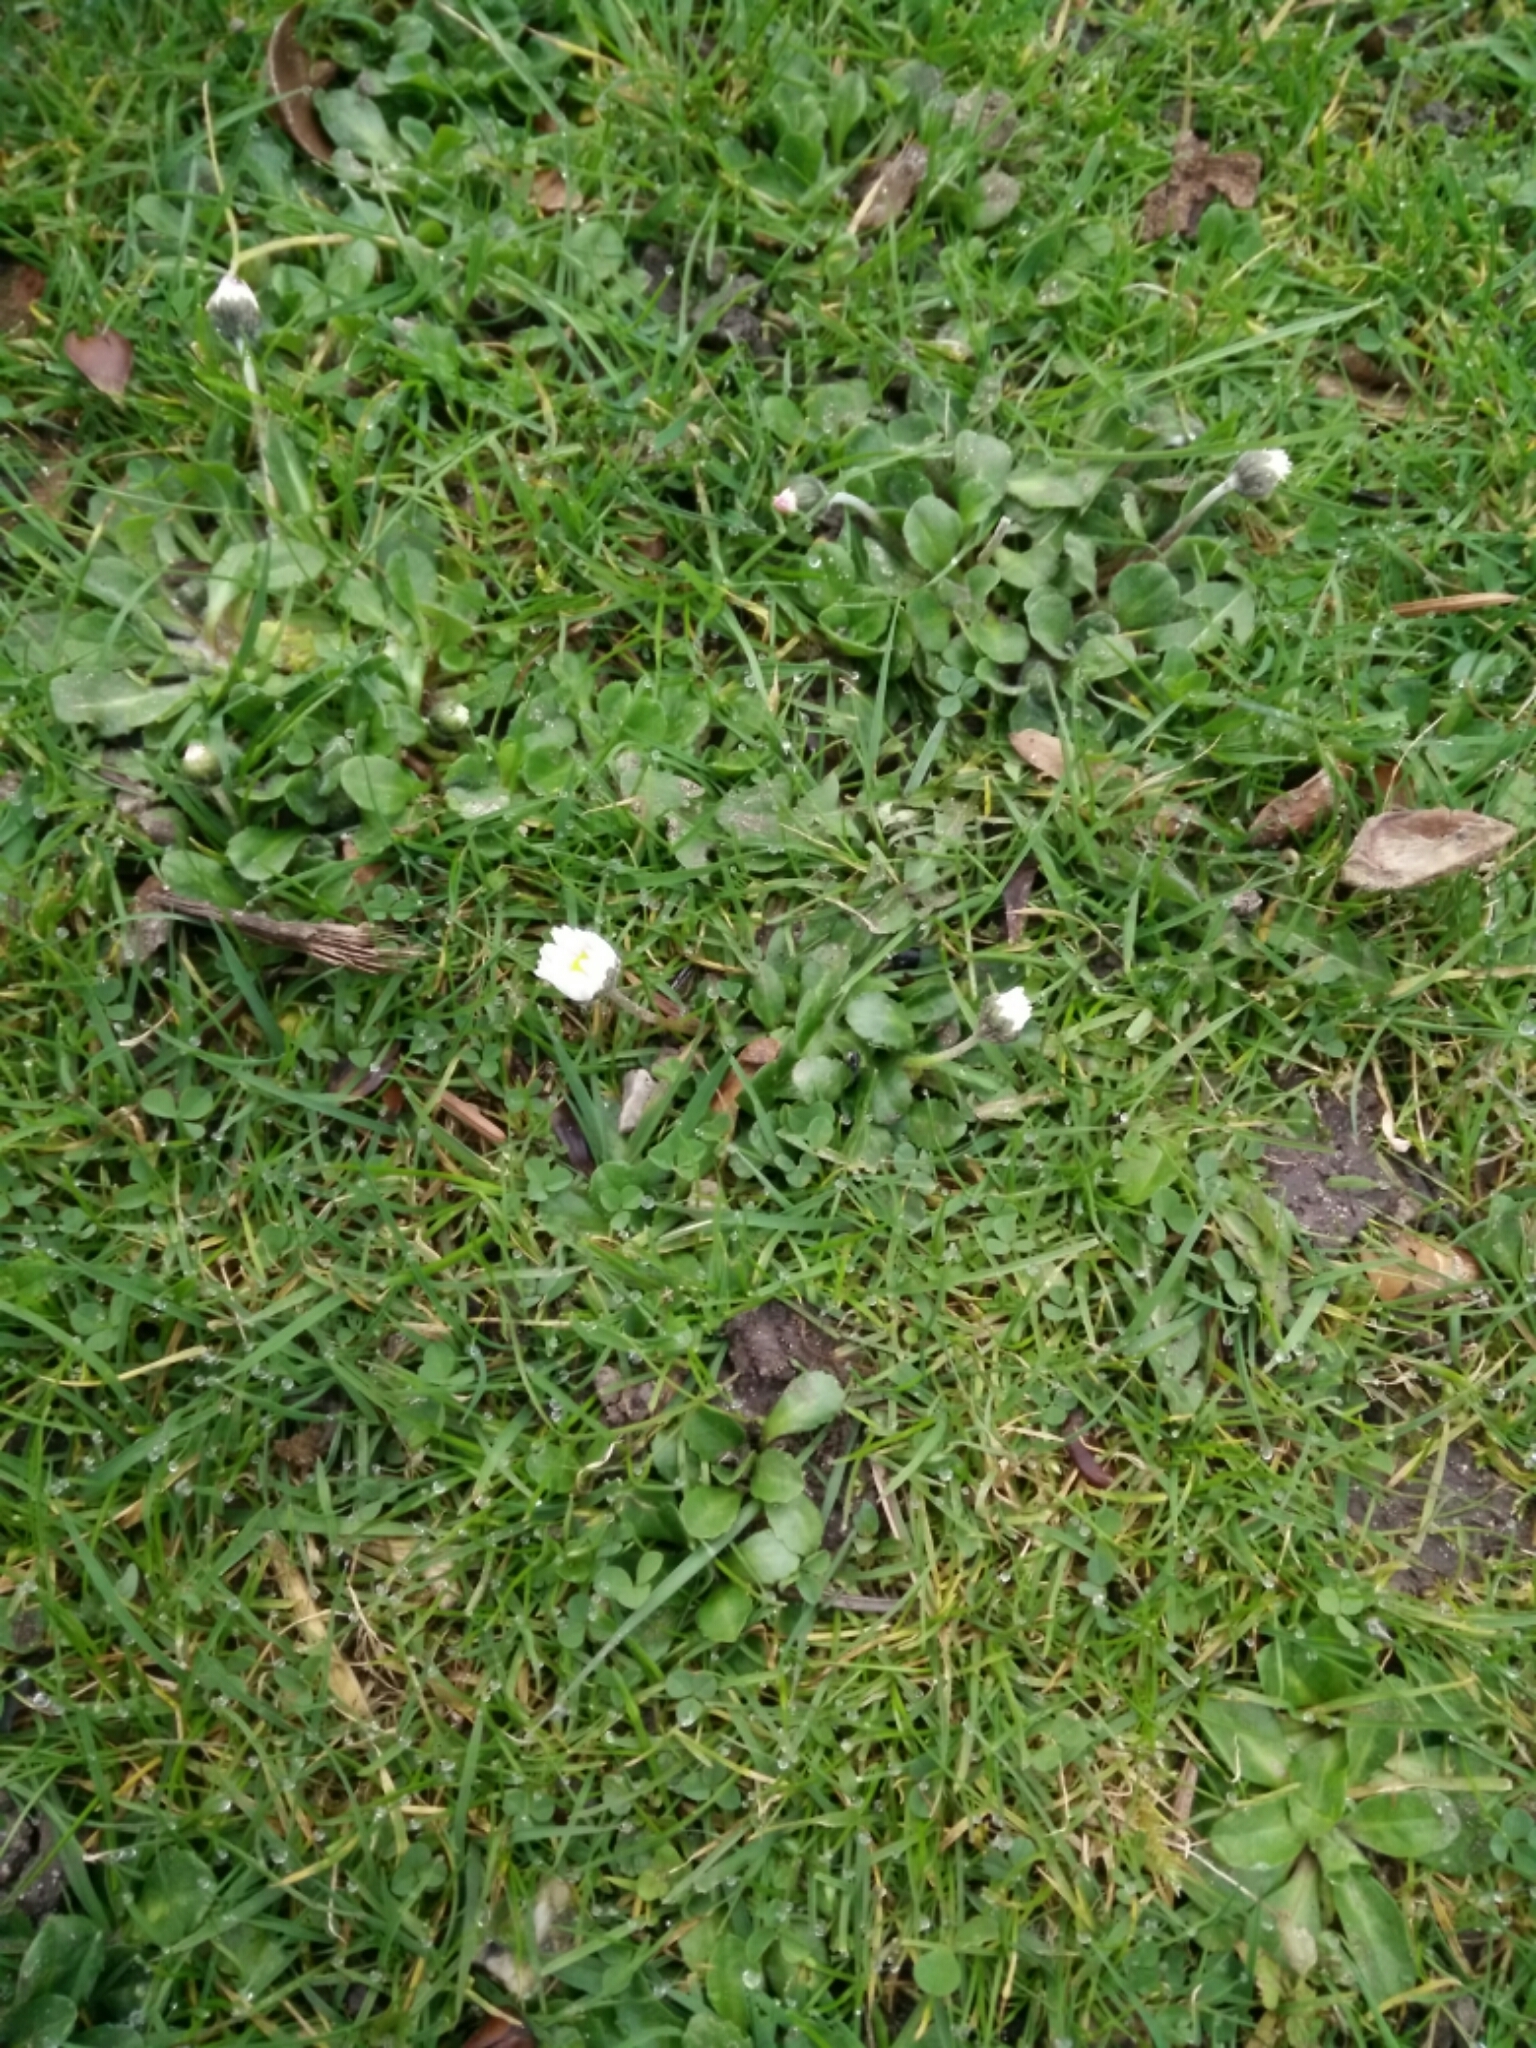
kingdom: Plantae
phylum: Tracheophyta
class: Magnoliopsida
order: Asterales
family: Asteraceae
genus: Bellis
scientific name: Bellis perennis
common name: Lawndaisy
